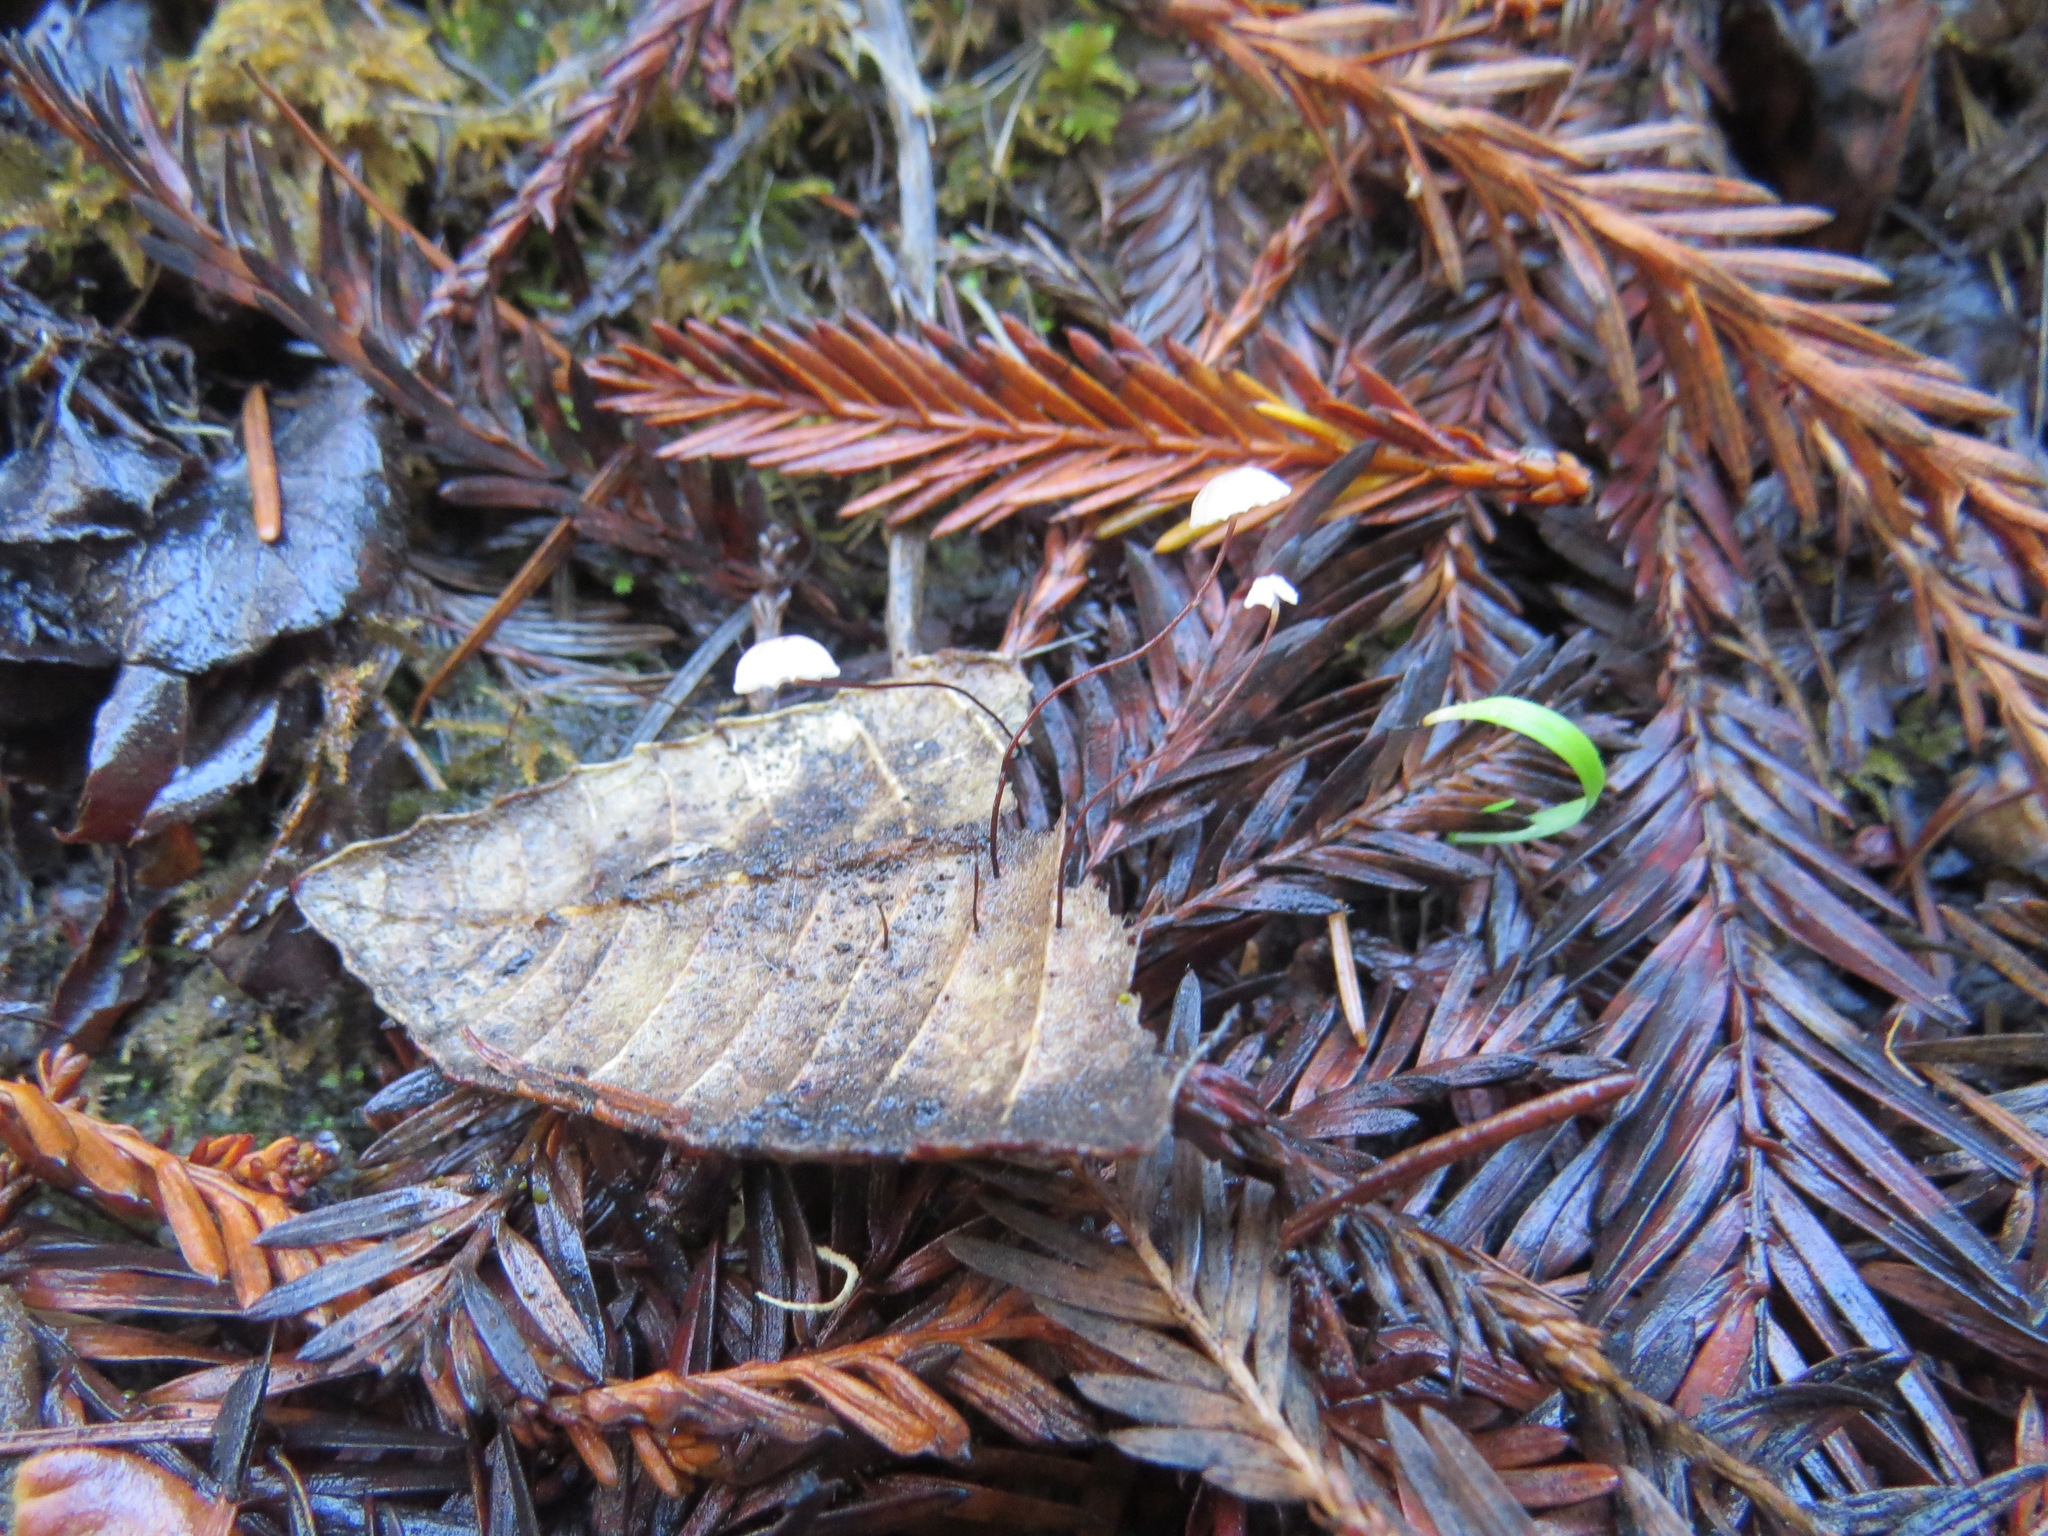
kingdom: Fungi
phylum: Basidiomycota
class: Agaricomycetes
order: Agaricales
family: Omphalotaceae
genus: Collybiopsis
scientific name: Collybiopsis quercophila
